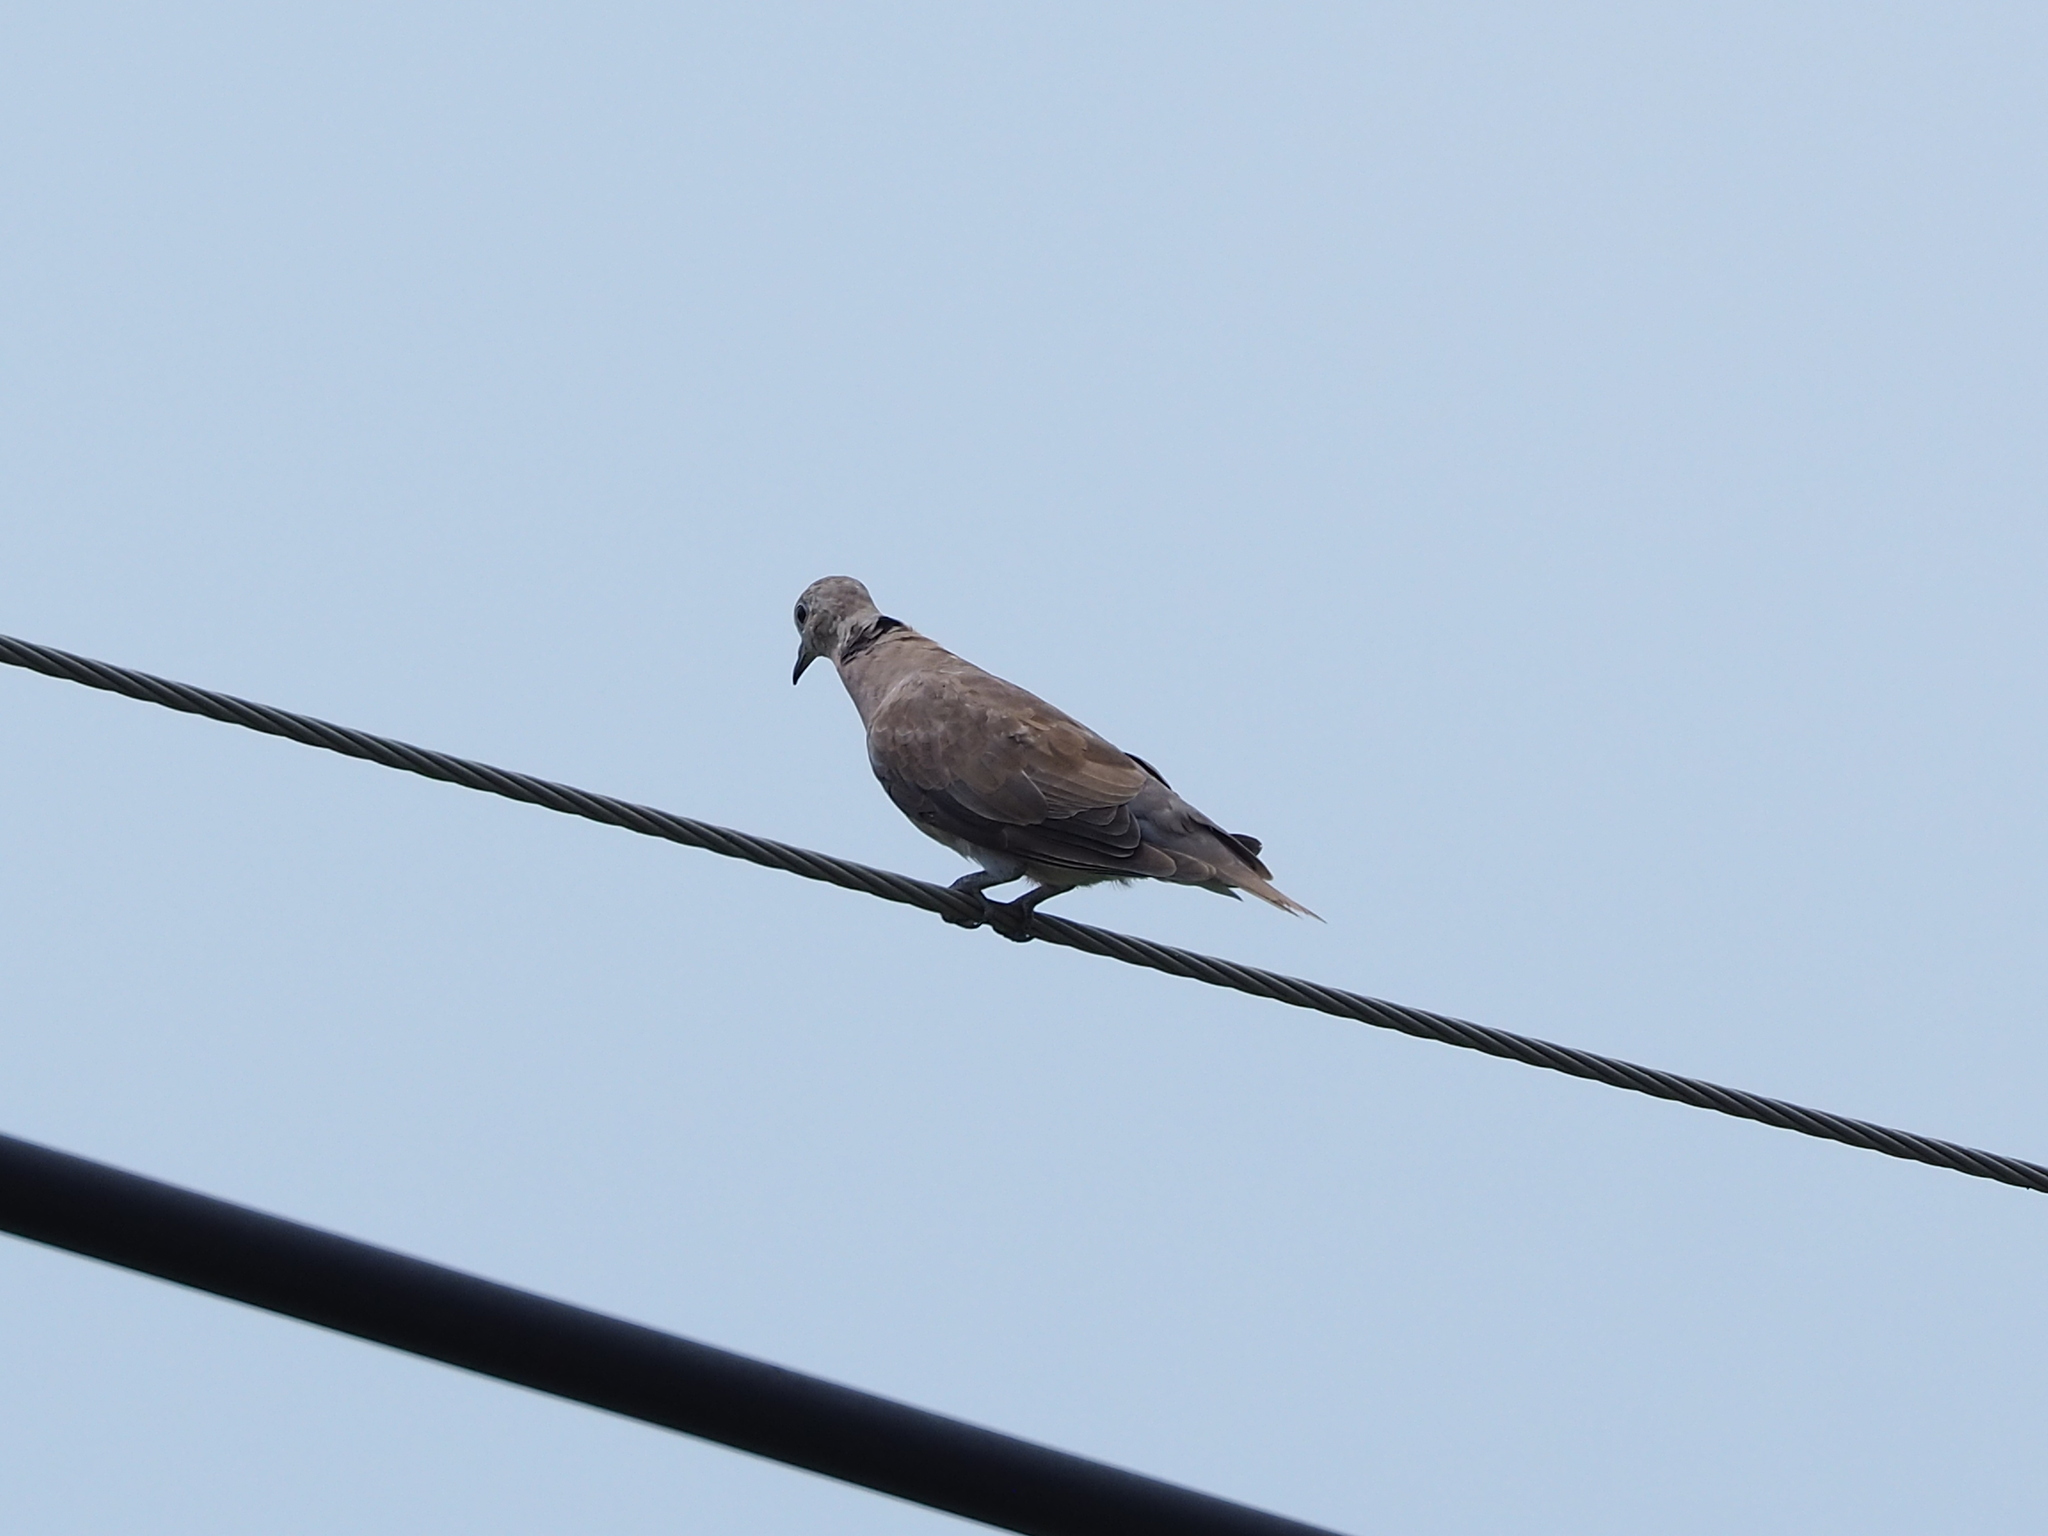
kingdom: Animalia
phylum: Chordata
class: Aves
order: Columbiformes
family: Columbidae
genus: Streptopelia
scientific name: Streptopelia tranquebarica
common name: Red turtle dove
